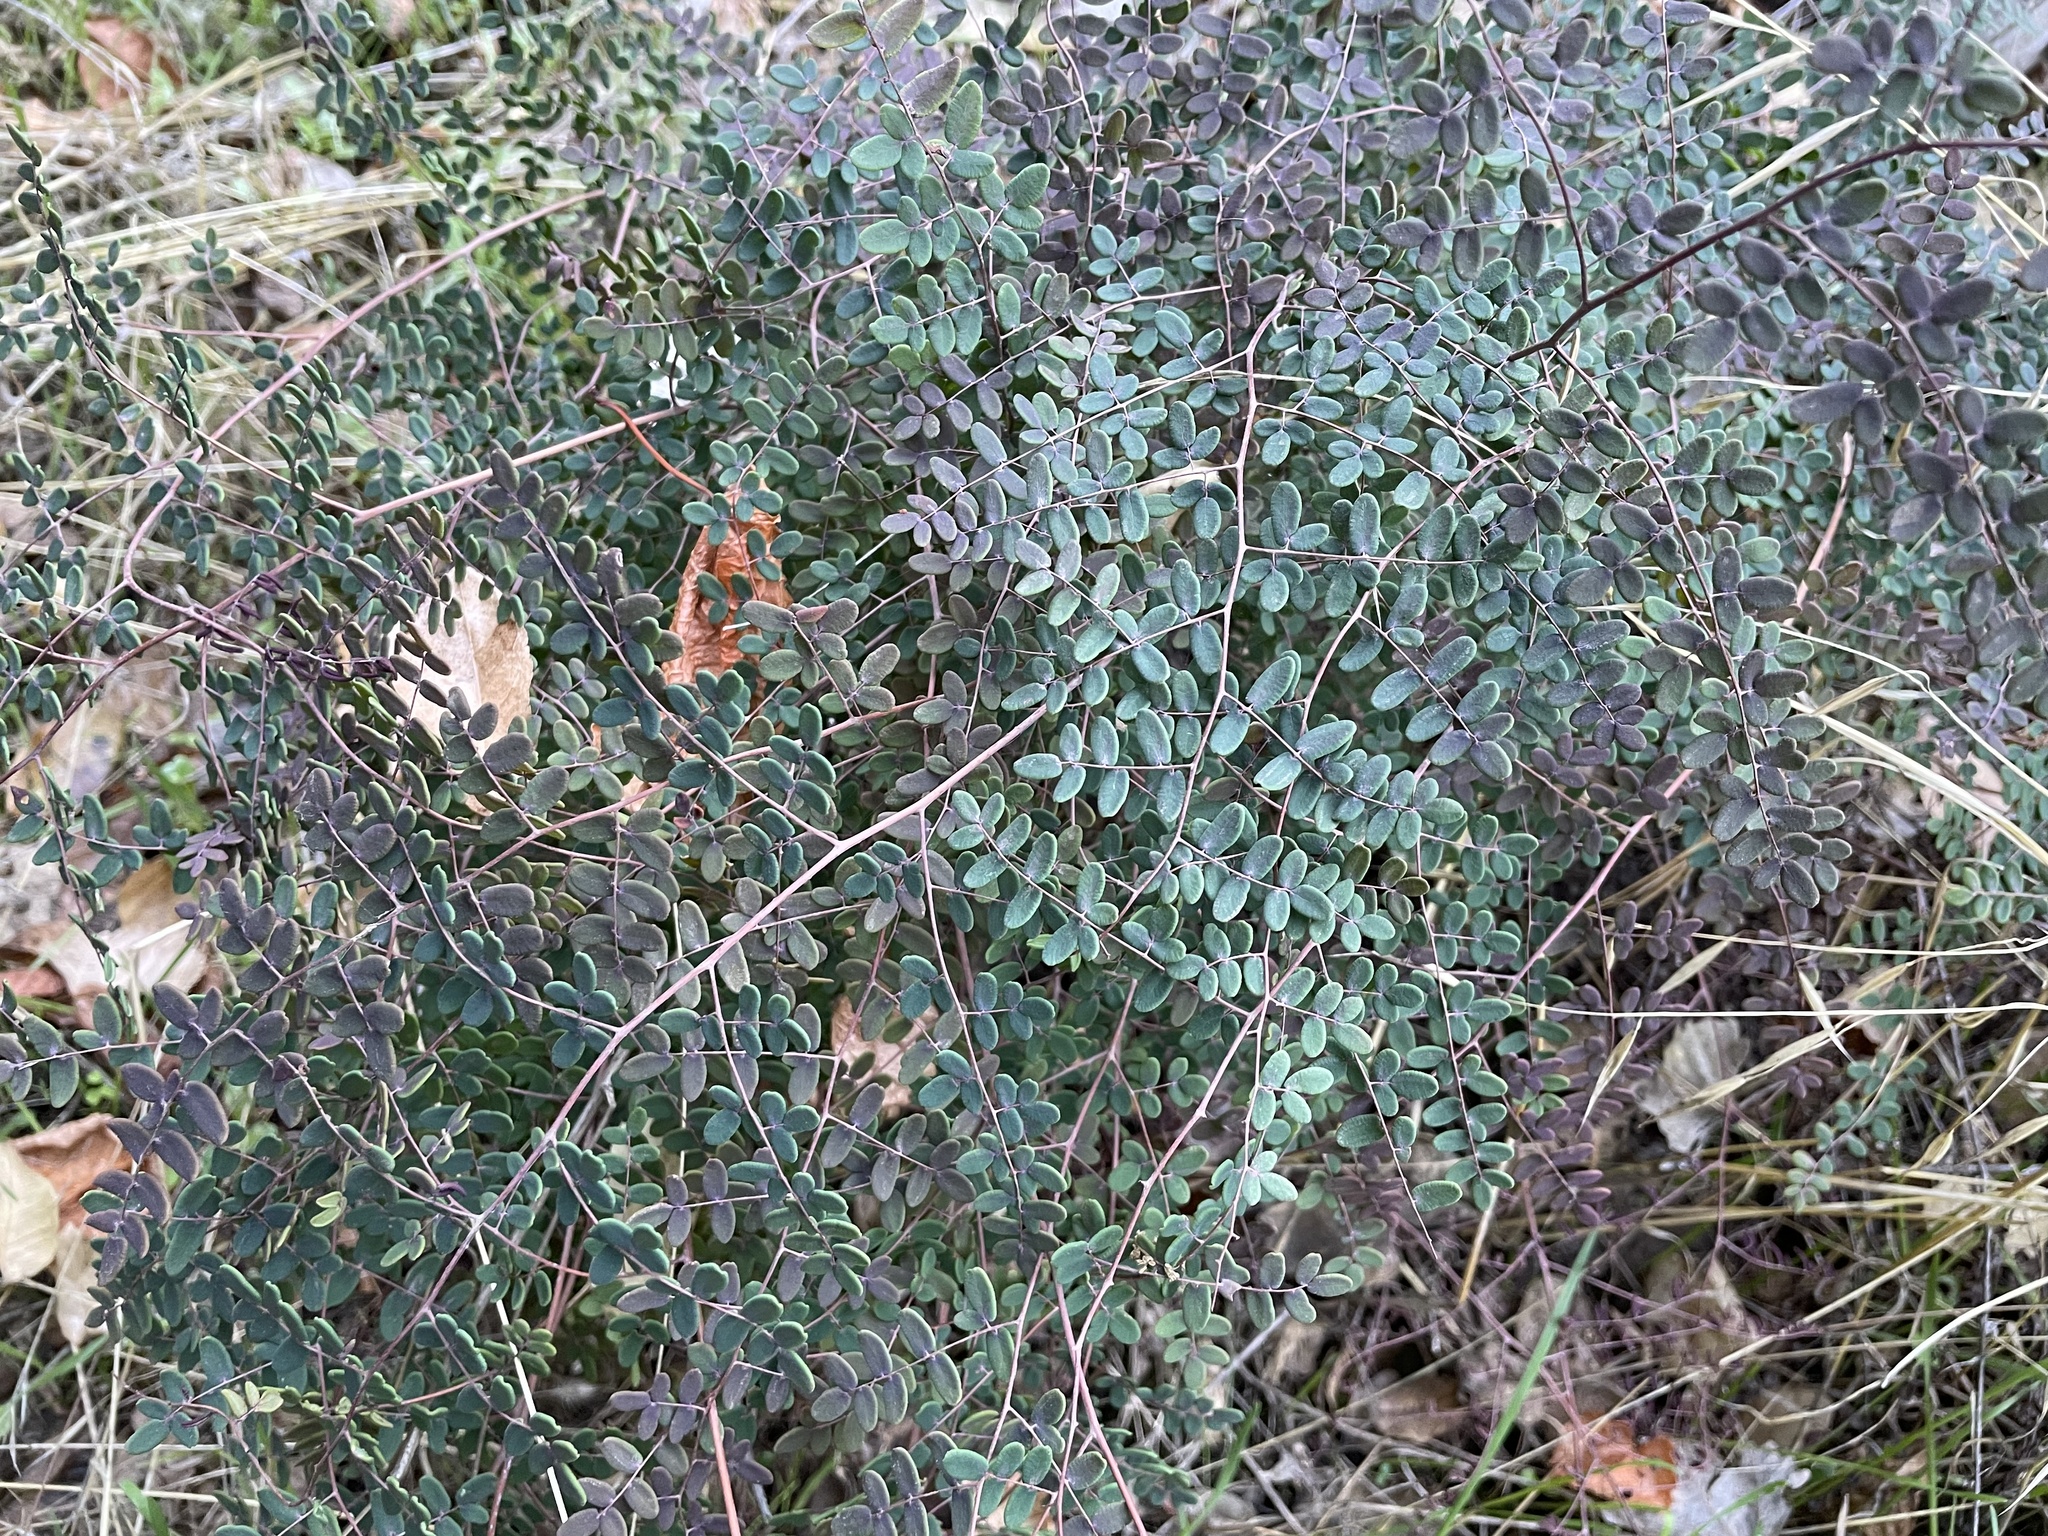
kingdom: Plantae
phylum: Tracheophyta
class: Polypodiopsida
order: Polypodiales
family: Pteridaceae
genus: Pellaea
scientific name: Pellaea andromedifolia
